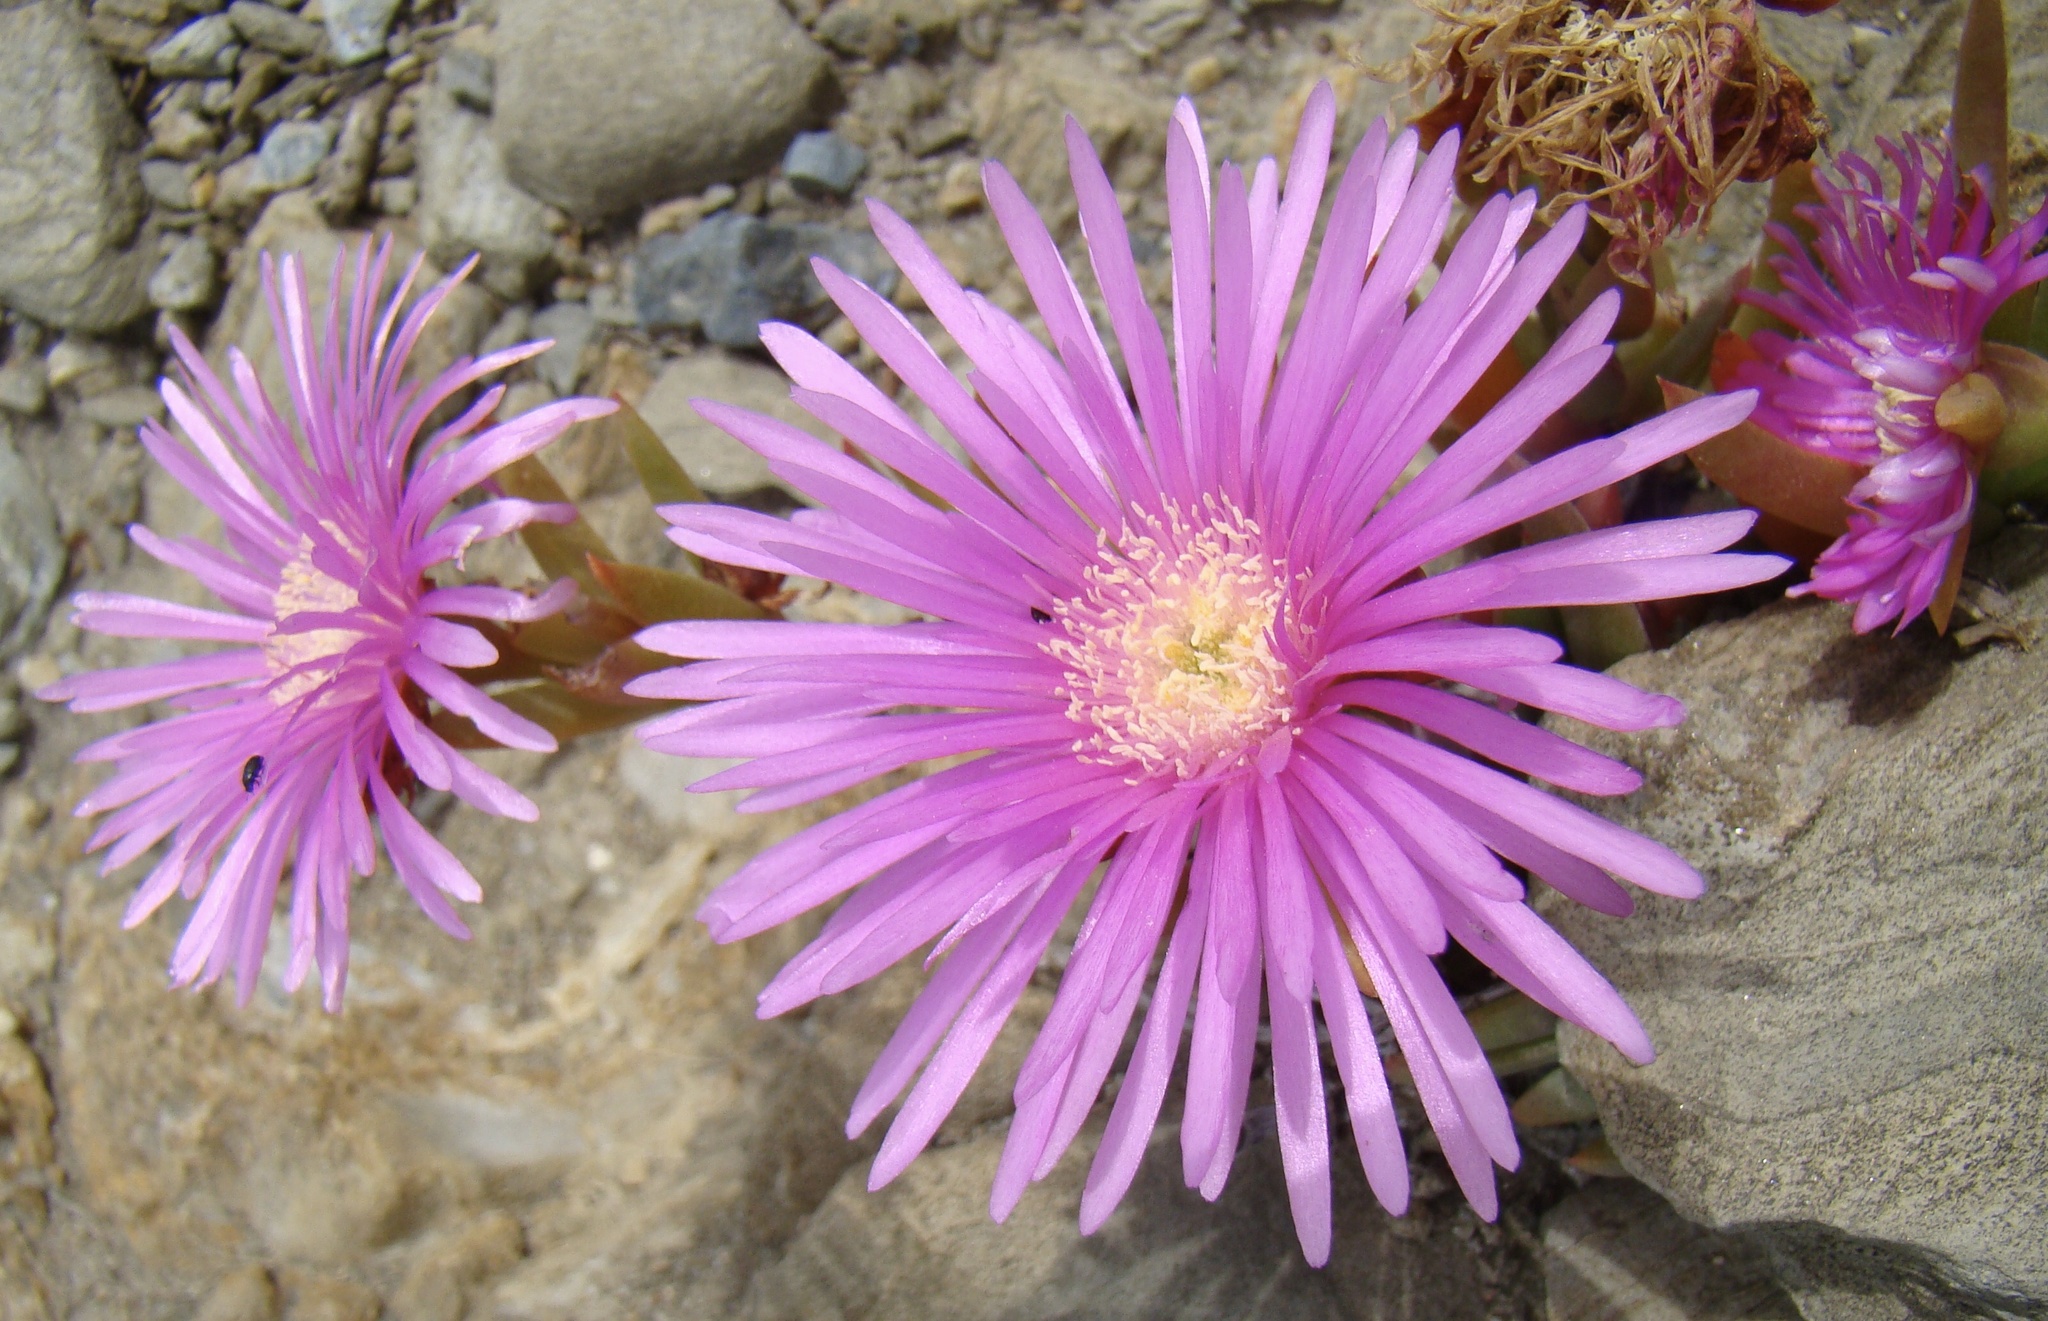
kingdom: Plantae
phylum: Tracheophyta
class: Magnoliopsida
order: Caryophyllales
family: Aizoaceae
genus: Disphyma
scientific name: Disphyma crassifolium
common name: Purple dewplant
